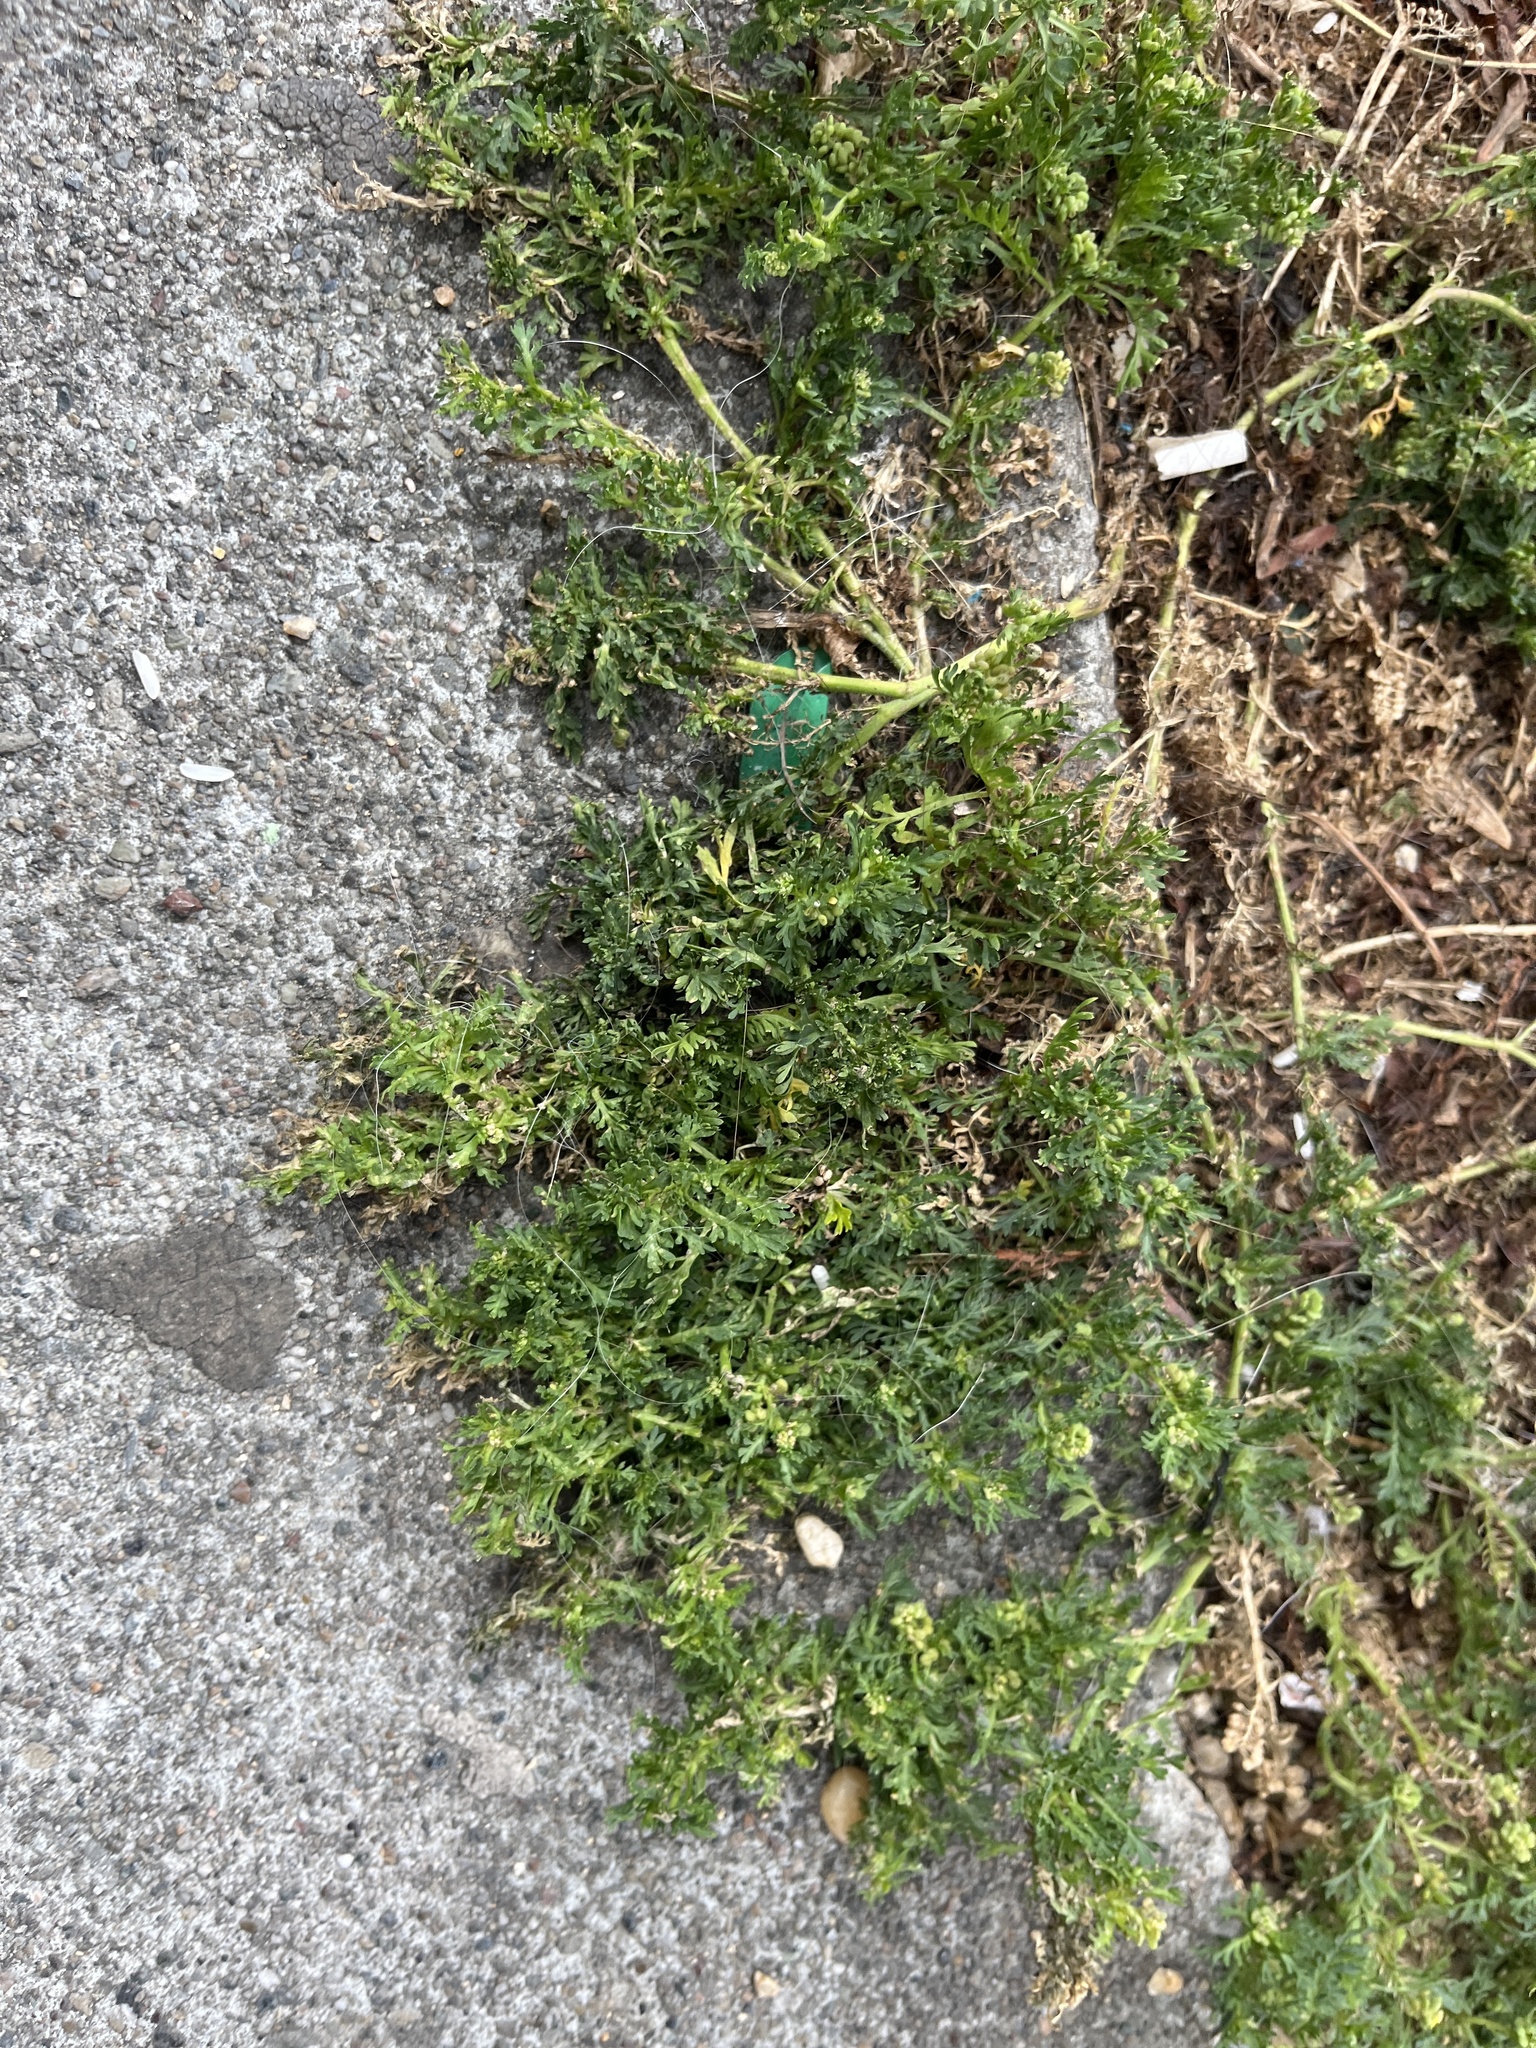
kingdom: Plantae
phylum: Tracheophyta
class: Magnoliopsida
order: Brassicales
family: Brassicaceae
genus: Lepidium
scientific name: Lepidium didymum
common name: Lesser swinecress
